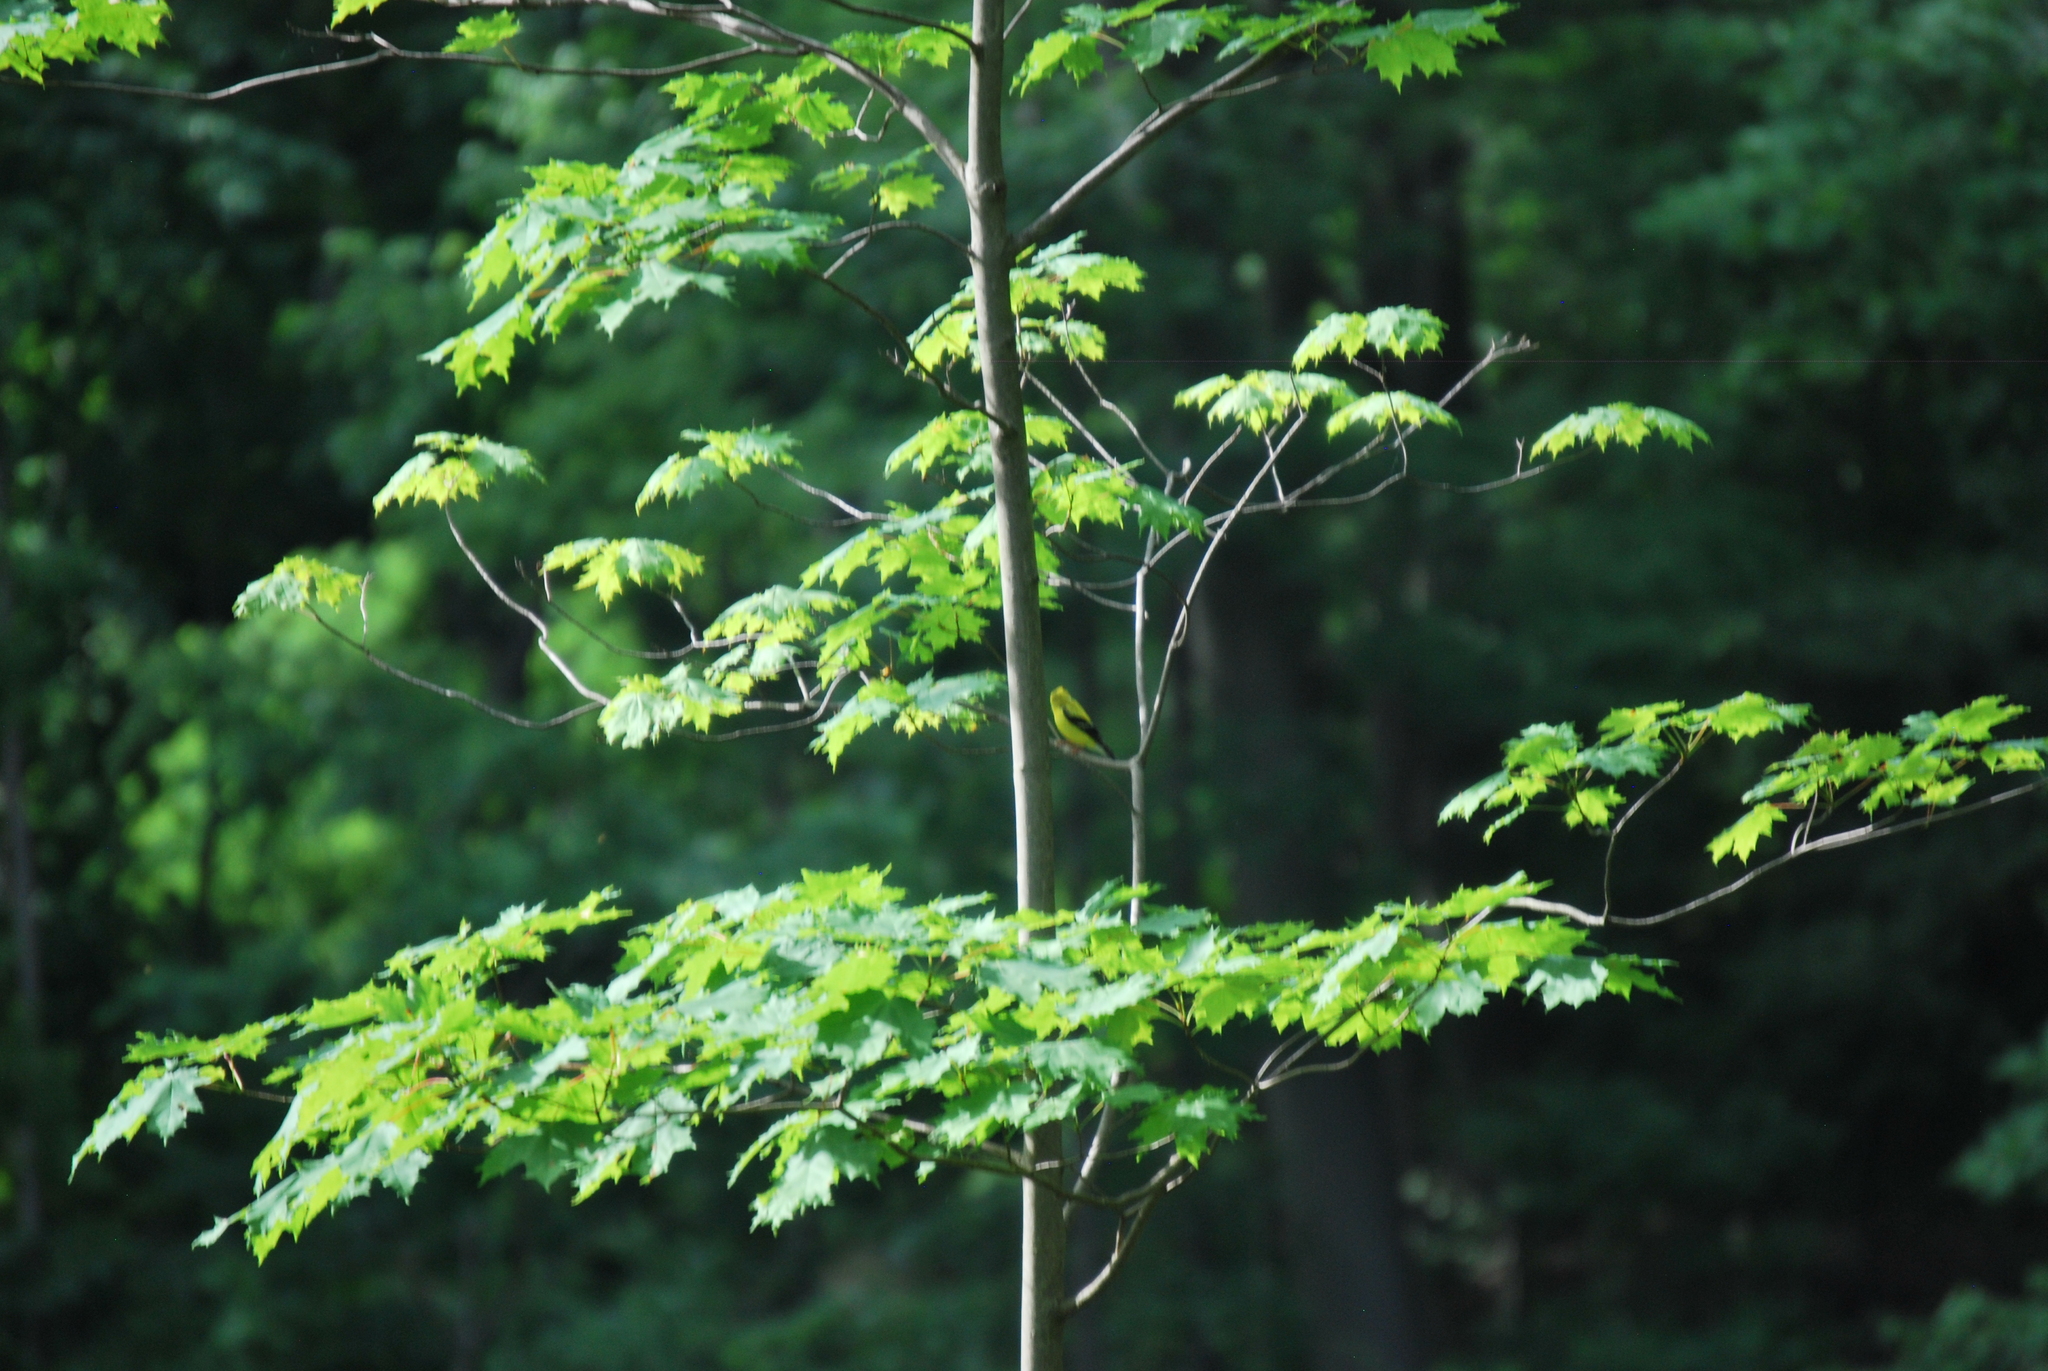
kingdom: Animalia
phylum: Chordata
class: Aves
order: Passeriformes
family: Fringillidae
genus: Spinus
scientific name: Spinus tristis
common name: American goldfinch
